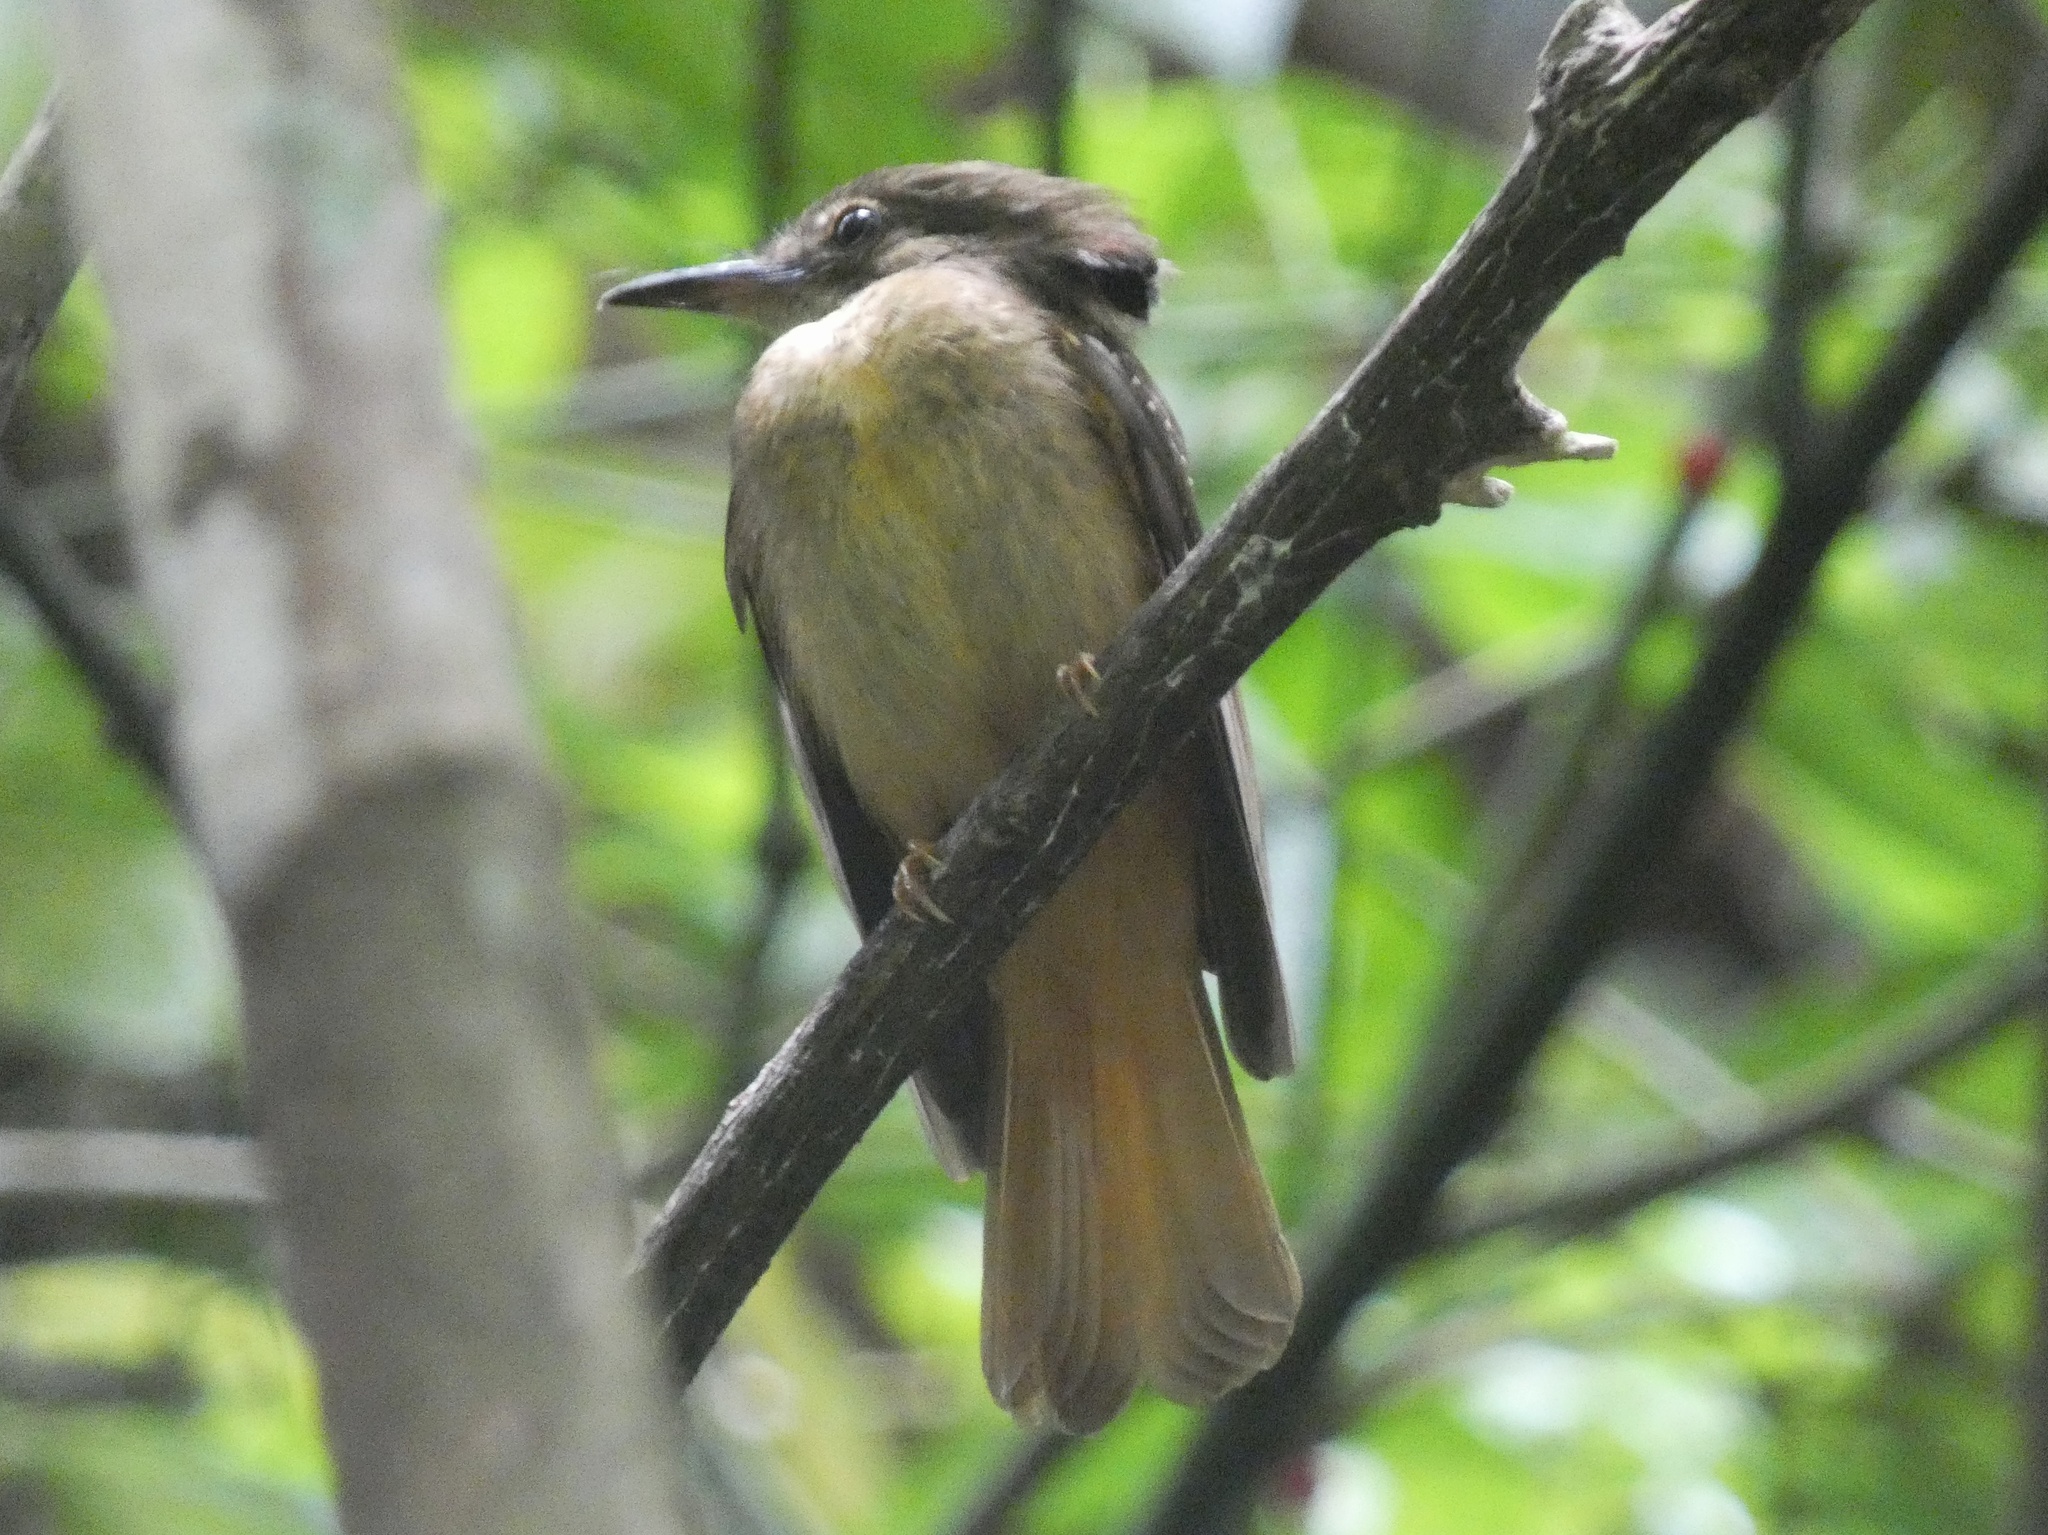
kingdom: Animalia
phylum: Chordata
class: Aves
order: Passeriformes
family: Tyrannidae
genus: Onychorhynchus
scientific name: Onychorhynchus coronatus
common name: Royal flycatcher
